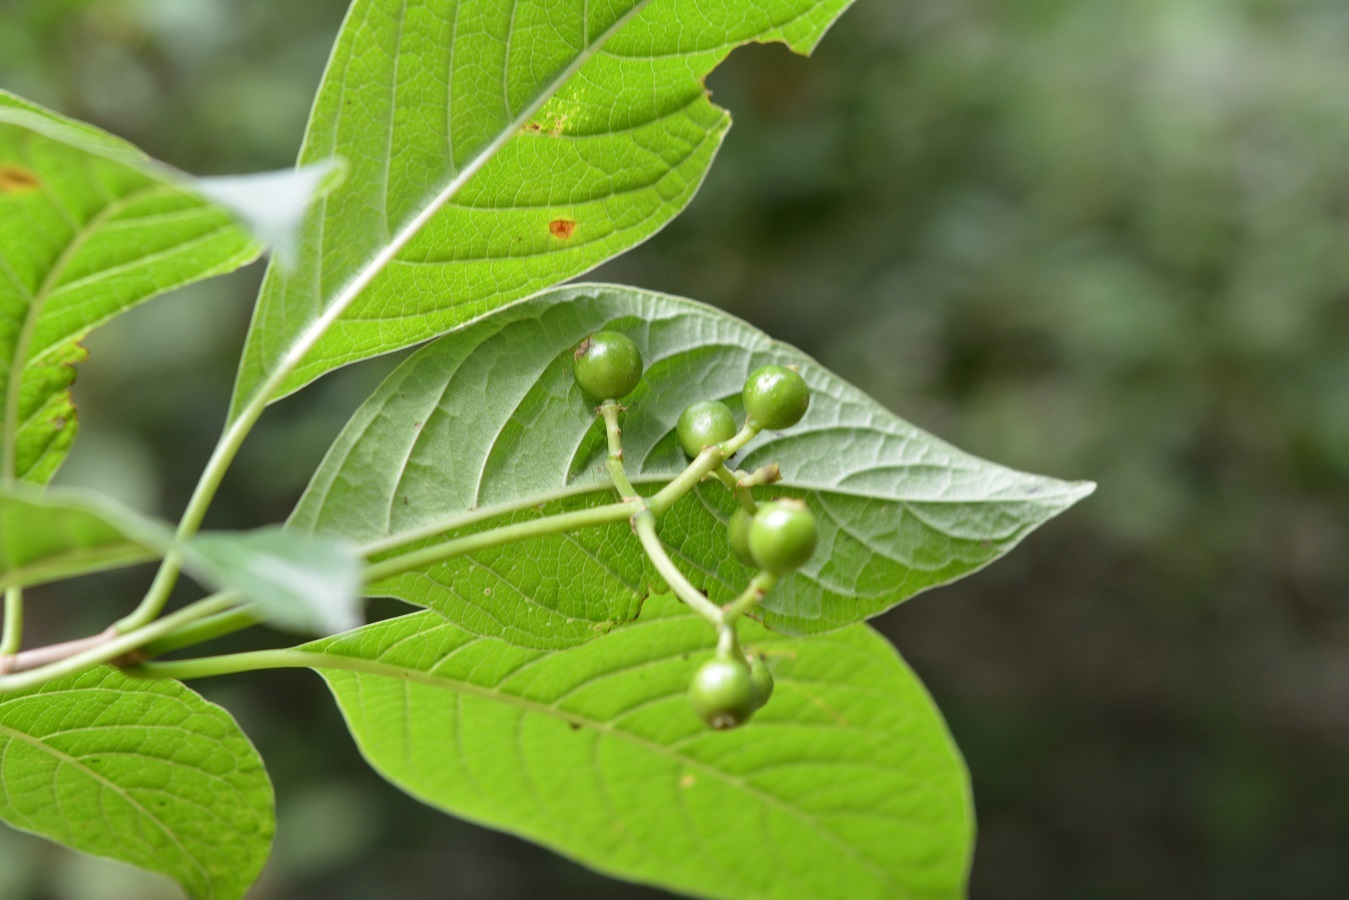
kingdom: Plantae
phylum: Tracheophyta
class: Magnoliopsida
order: Gentianales
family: Rubiaceae
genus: Coussarea
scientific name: Coussarea chiapensis
